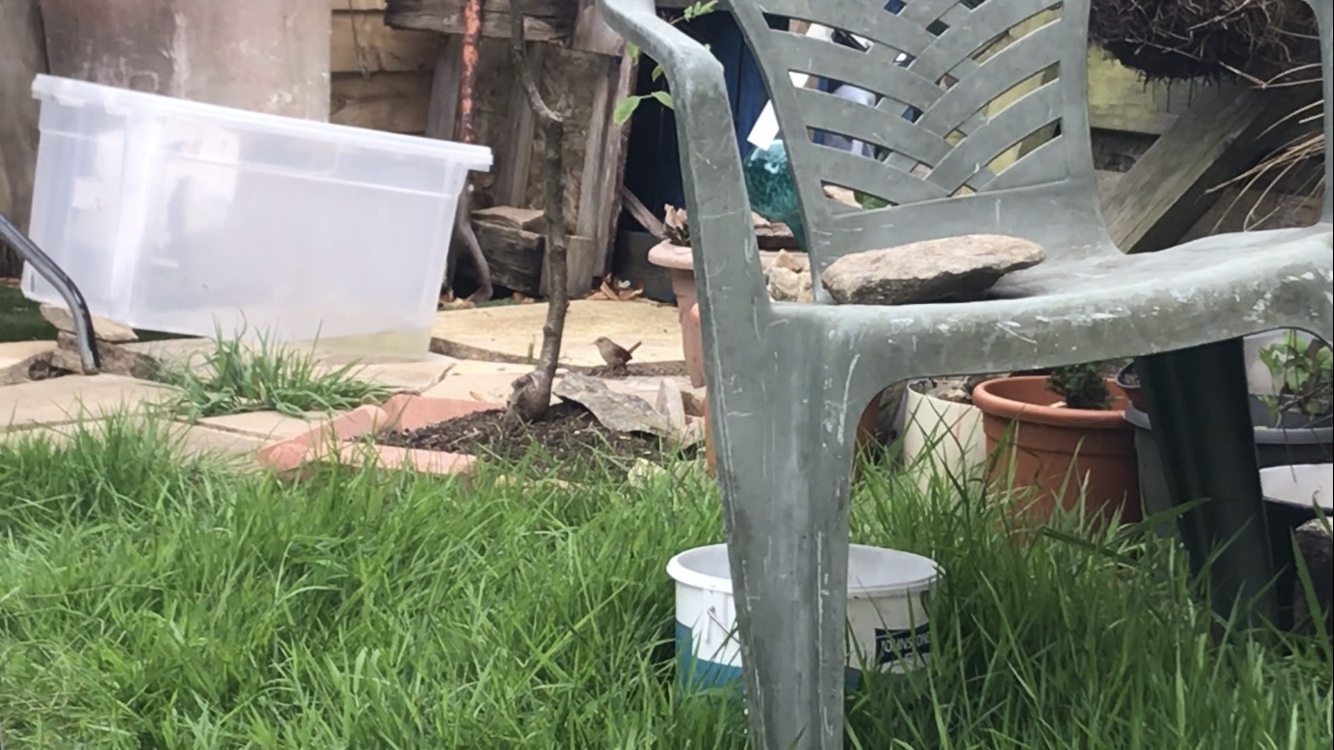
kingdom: Animalia
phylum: Chordata
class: Aves
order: Passeriformes
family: Troglodytidae
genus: Troglodytes
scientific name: Troglodytes troglodytes
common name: Eurasian wren
